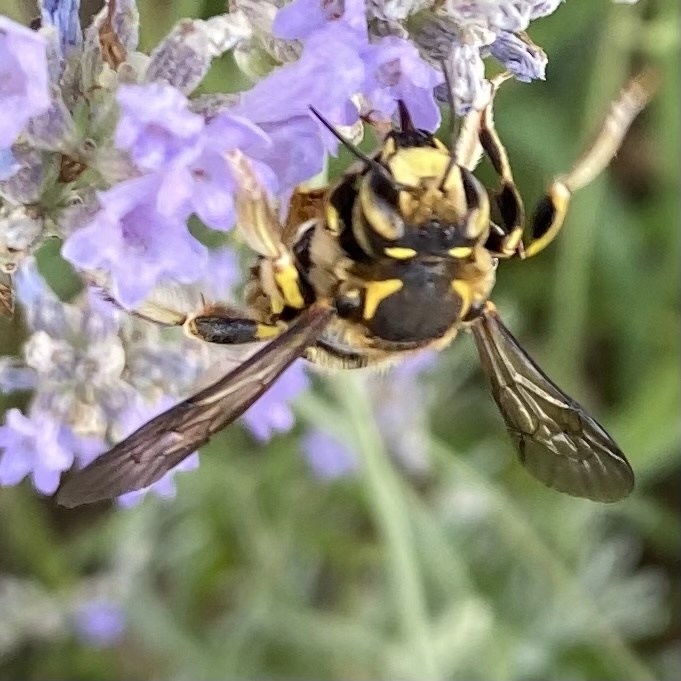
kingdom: Animalia
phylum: Arthropoda
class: Insecta
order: Hymenoptera
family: Megachilidae
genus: Anthidium
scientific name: Anthidium florentinum
